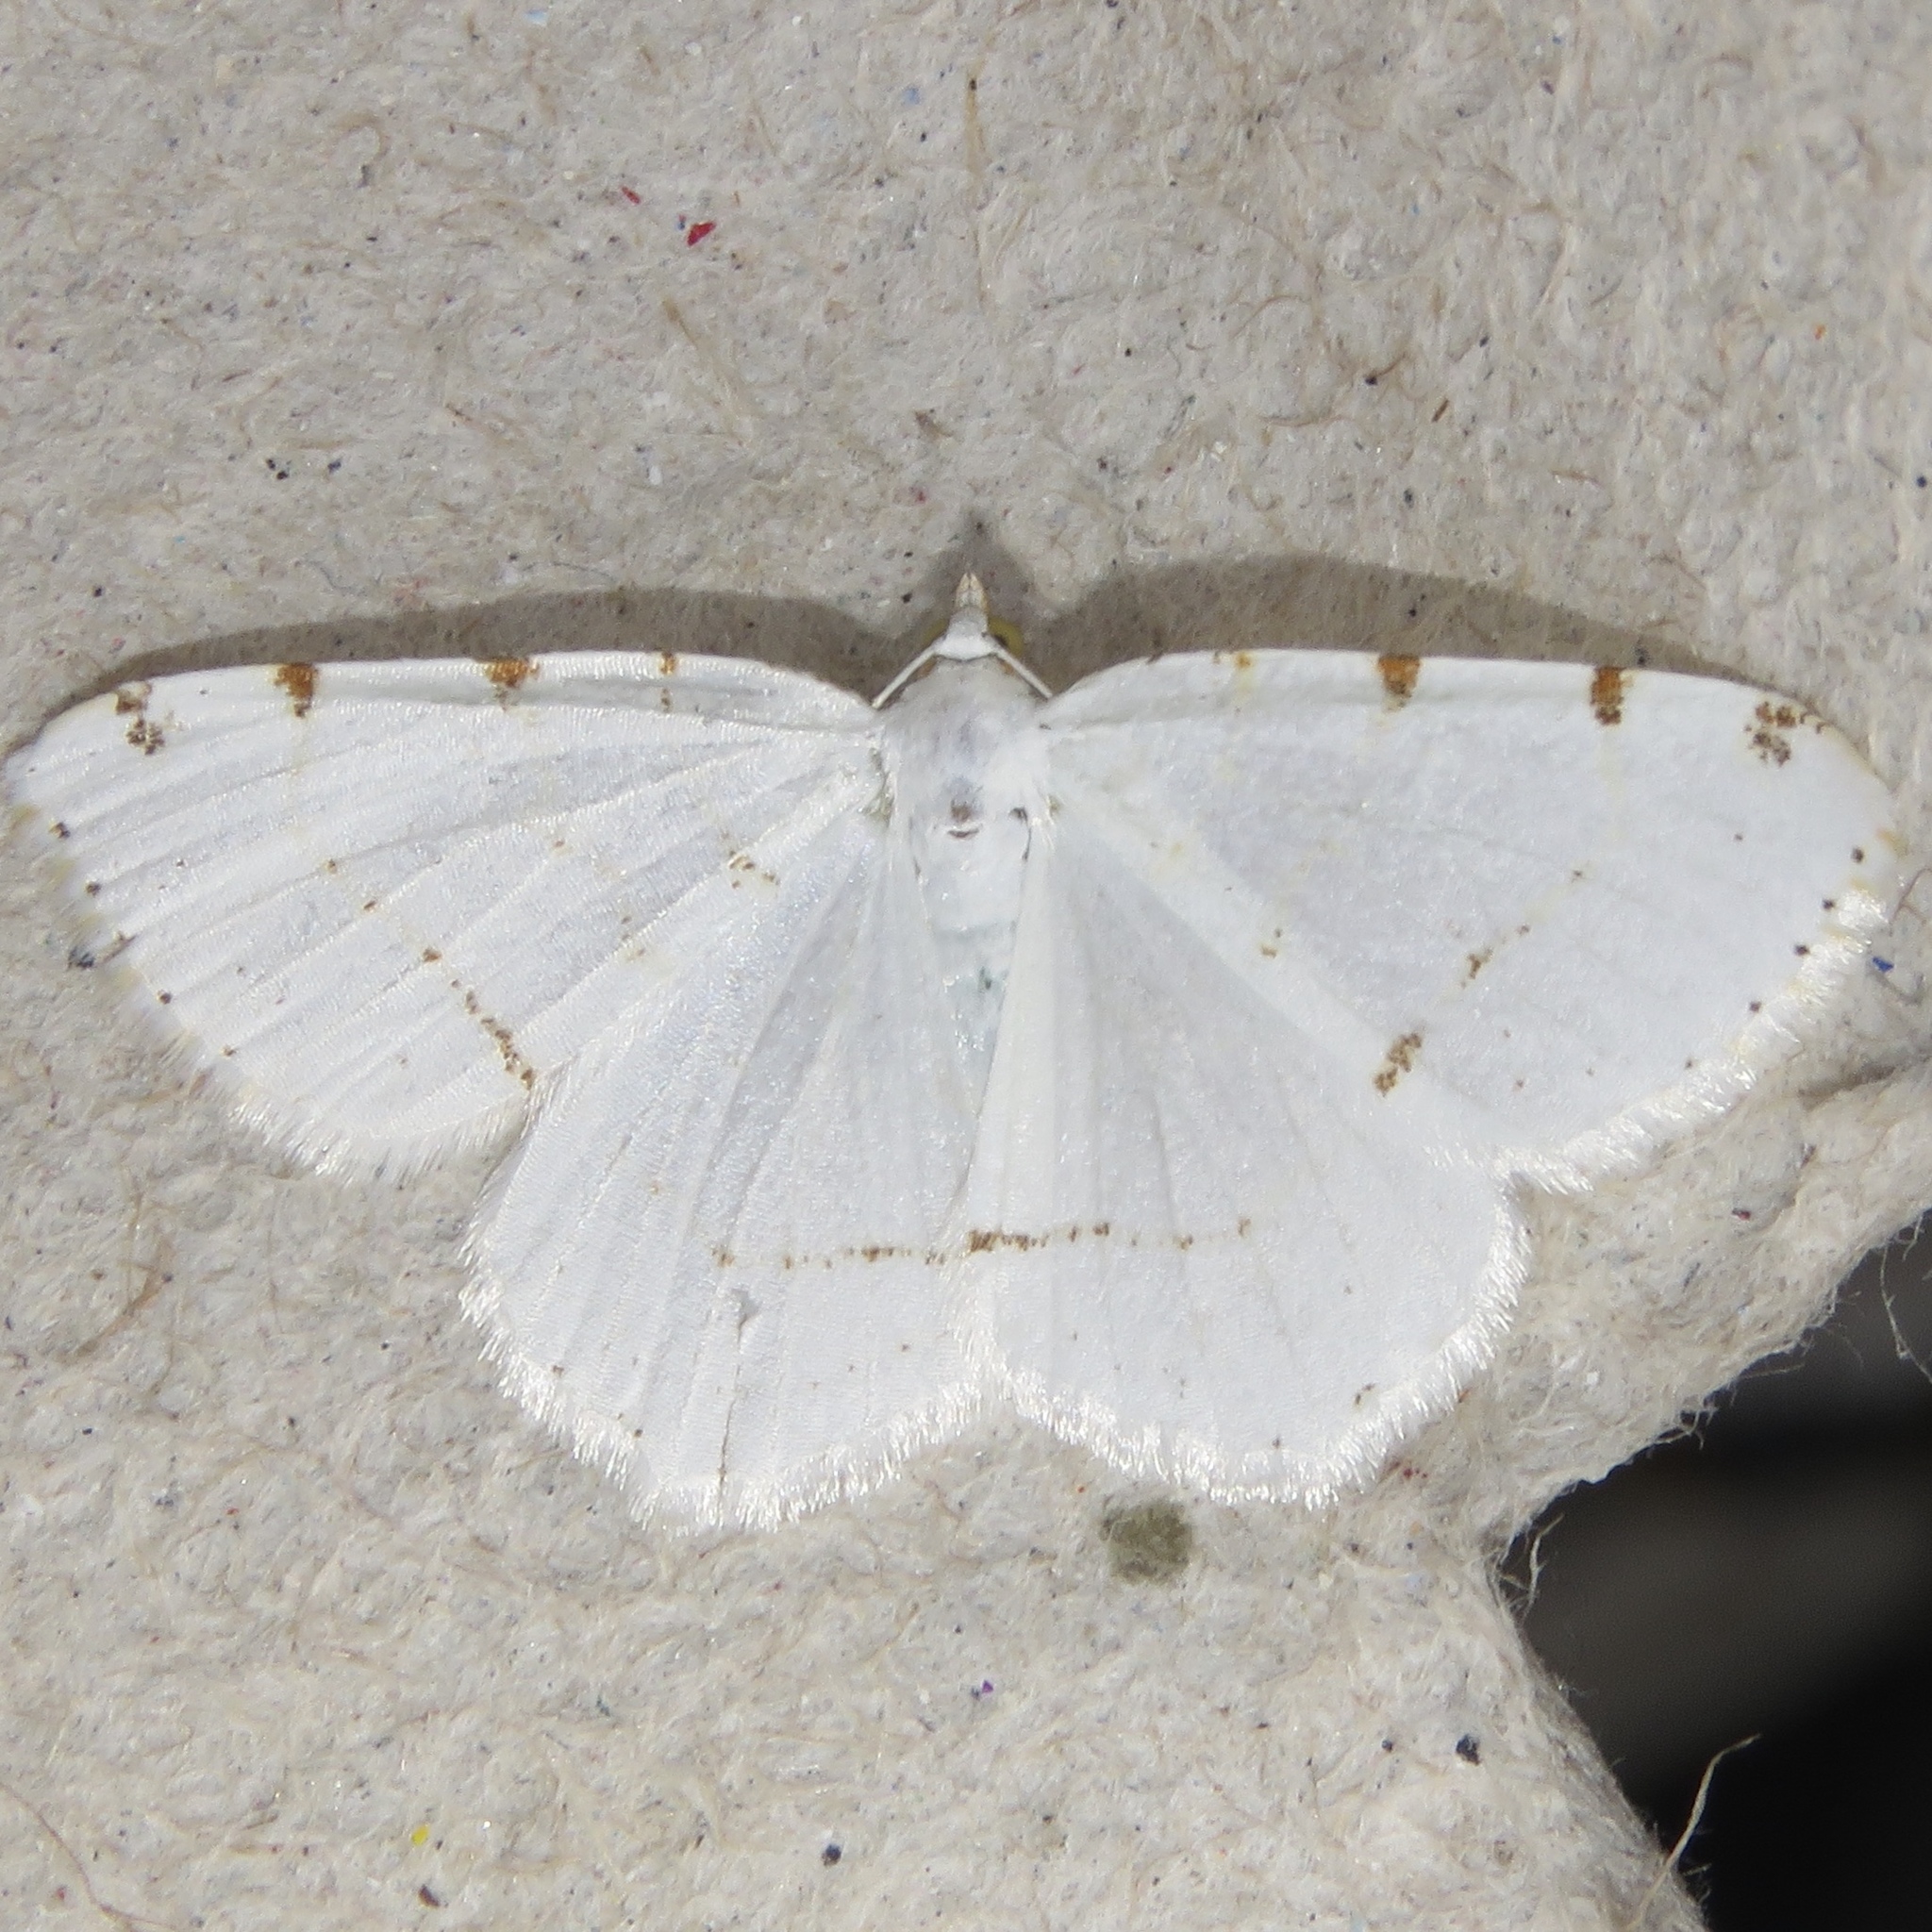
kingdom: Animalia
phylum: Arthropoda
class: Insecta
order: Lepidoptera
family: Geometridae
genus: Macaria
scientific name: Macaria pustularia
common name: Lesser maple spanworm moth
